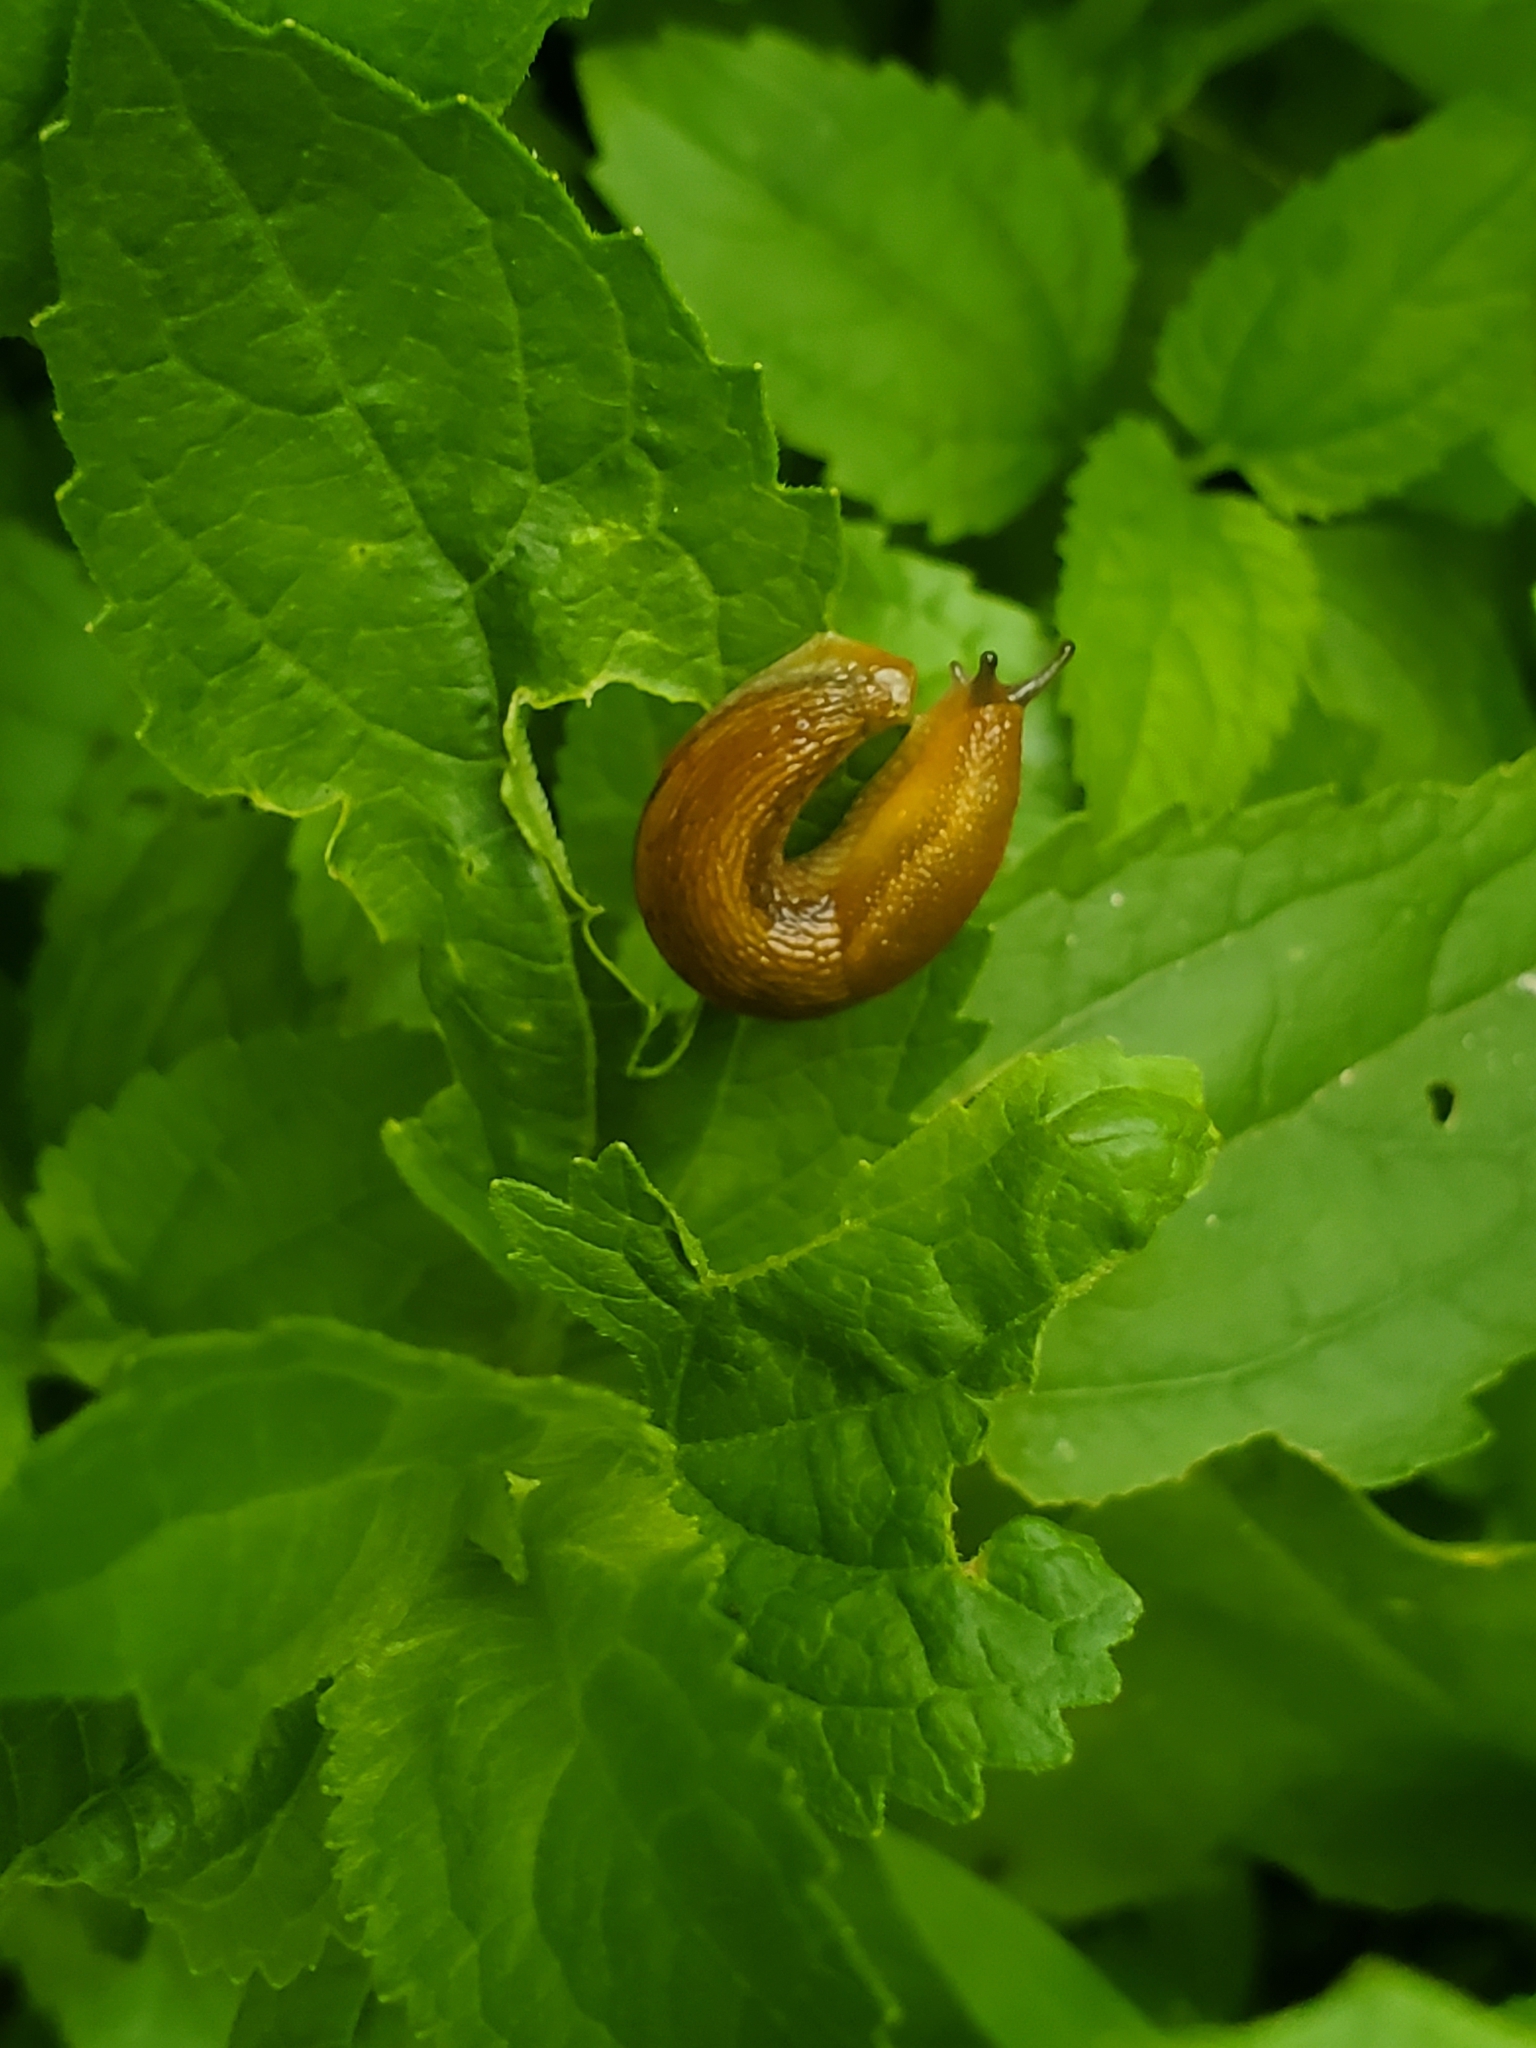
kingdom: Animalia
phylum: Mollusca
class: Gastropoda
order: Stylommatophora
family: Arionidae
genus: Arion
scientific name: Arion subfuscus
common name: Dusky arion
